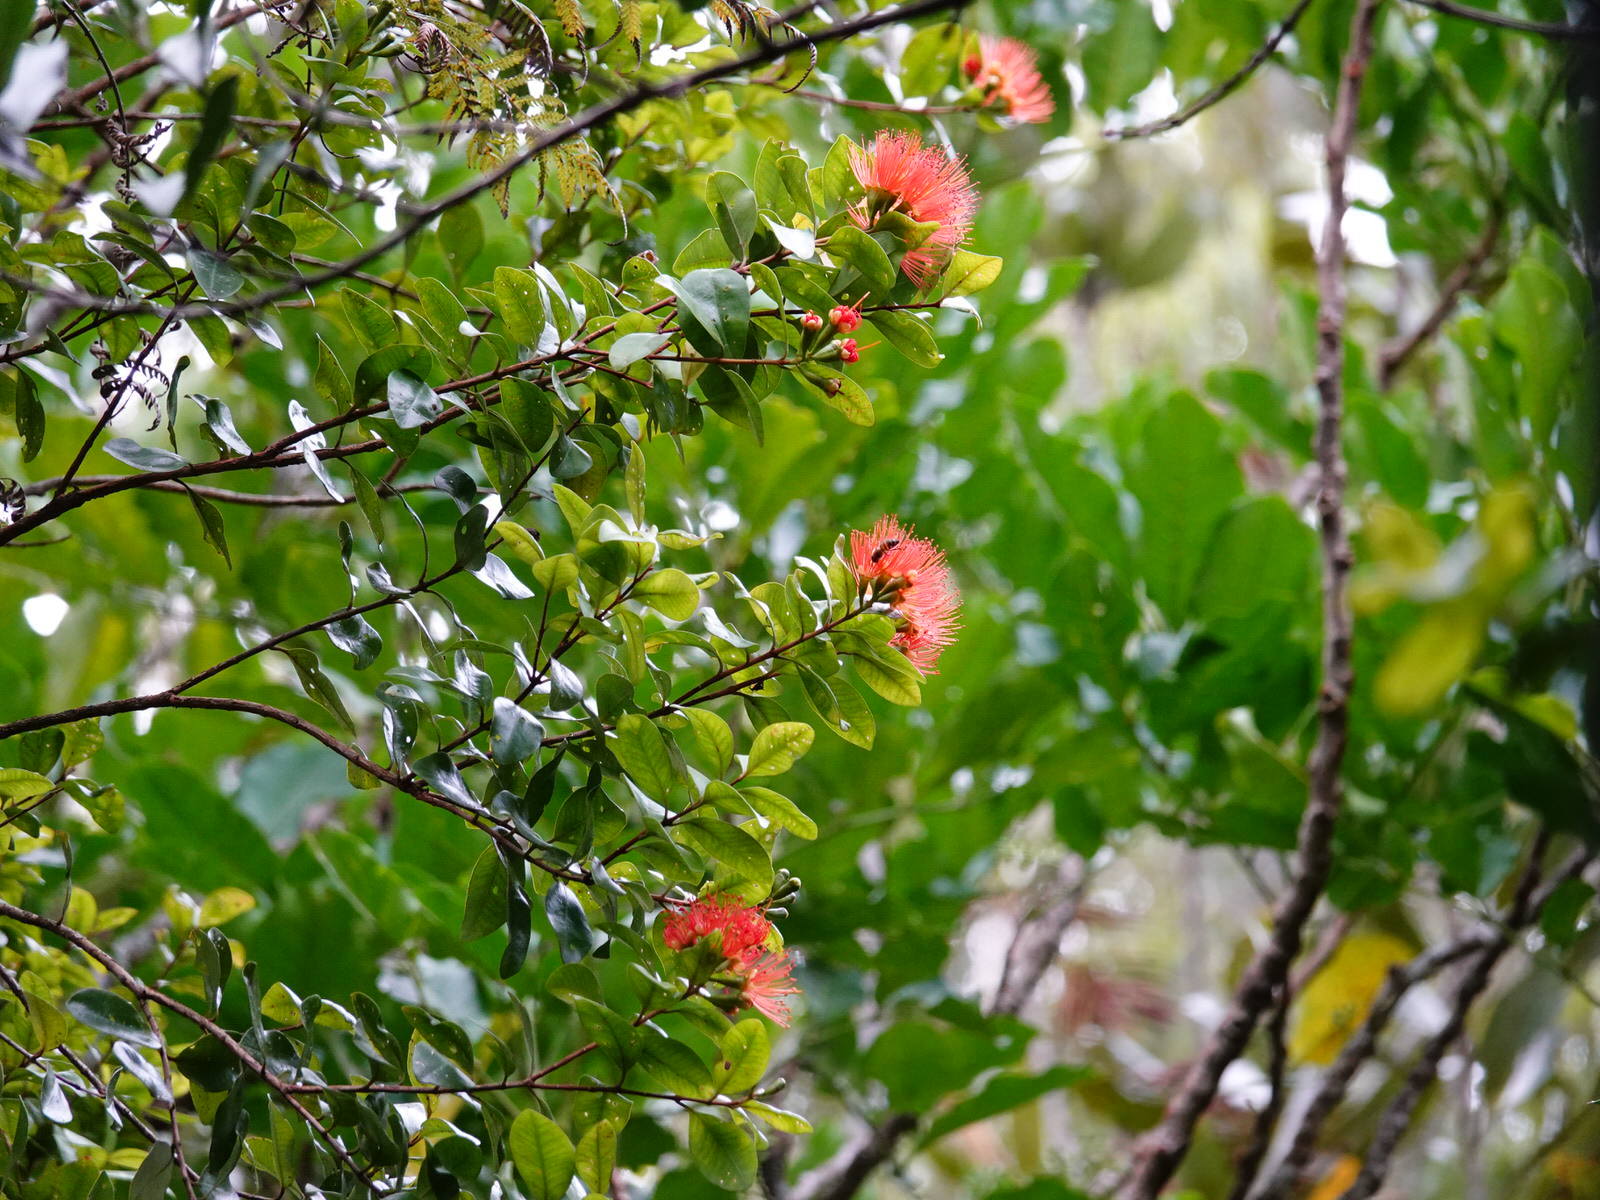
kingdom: Plantae
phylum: Tracheophyta
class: Magnoliopsida
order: Myrtales
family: Myrtaceae
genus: Metrosideros
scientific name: Metrosideros fulgens
